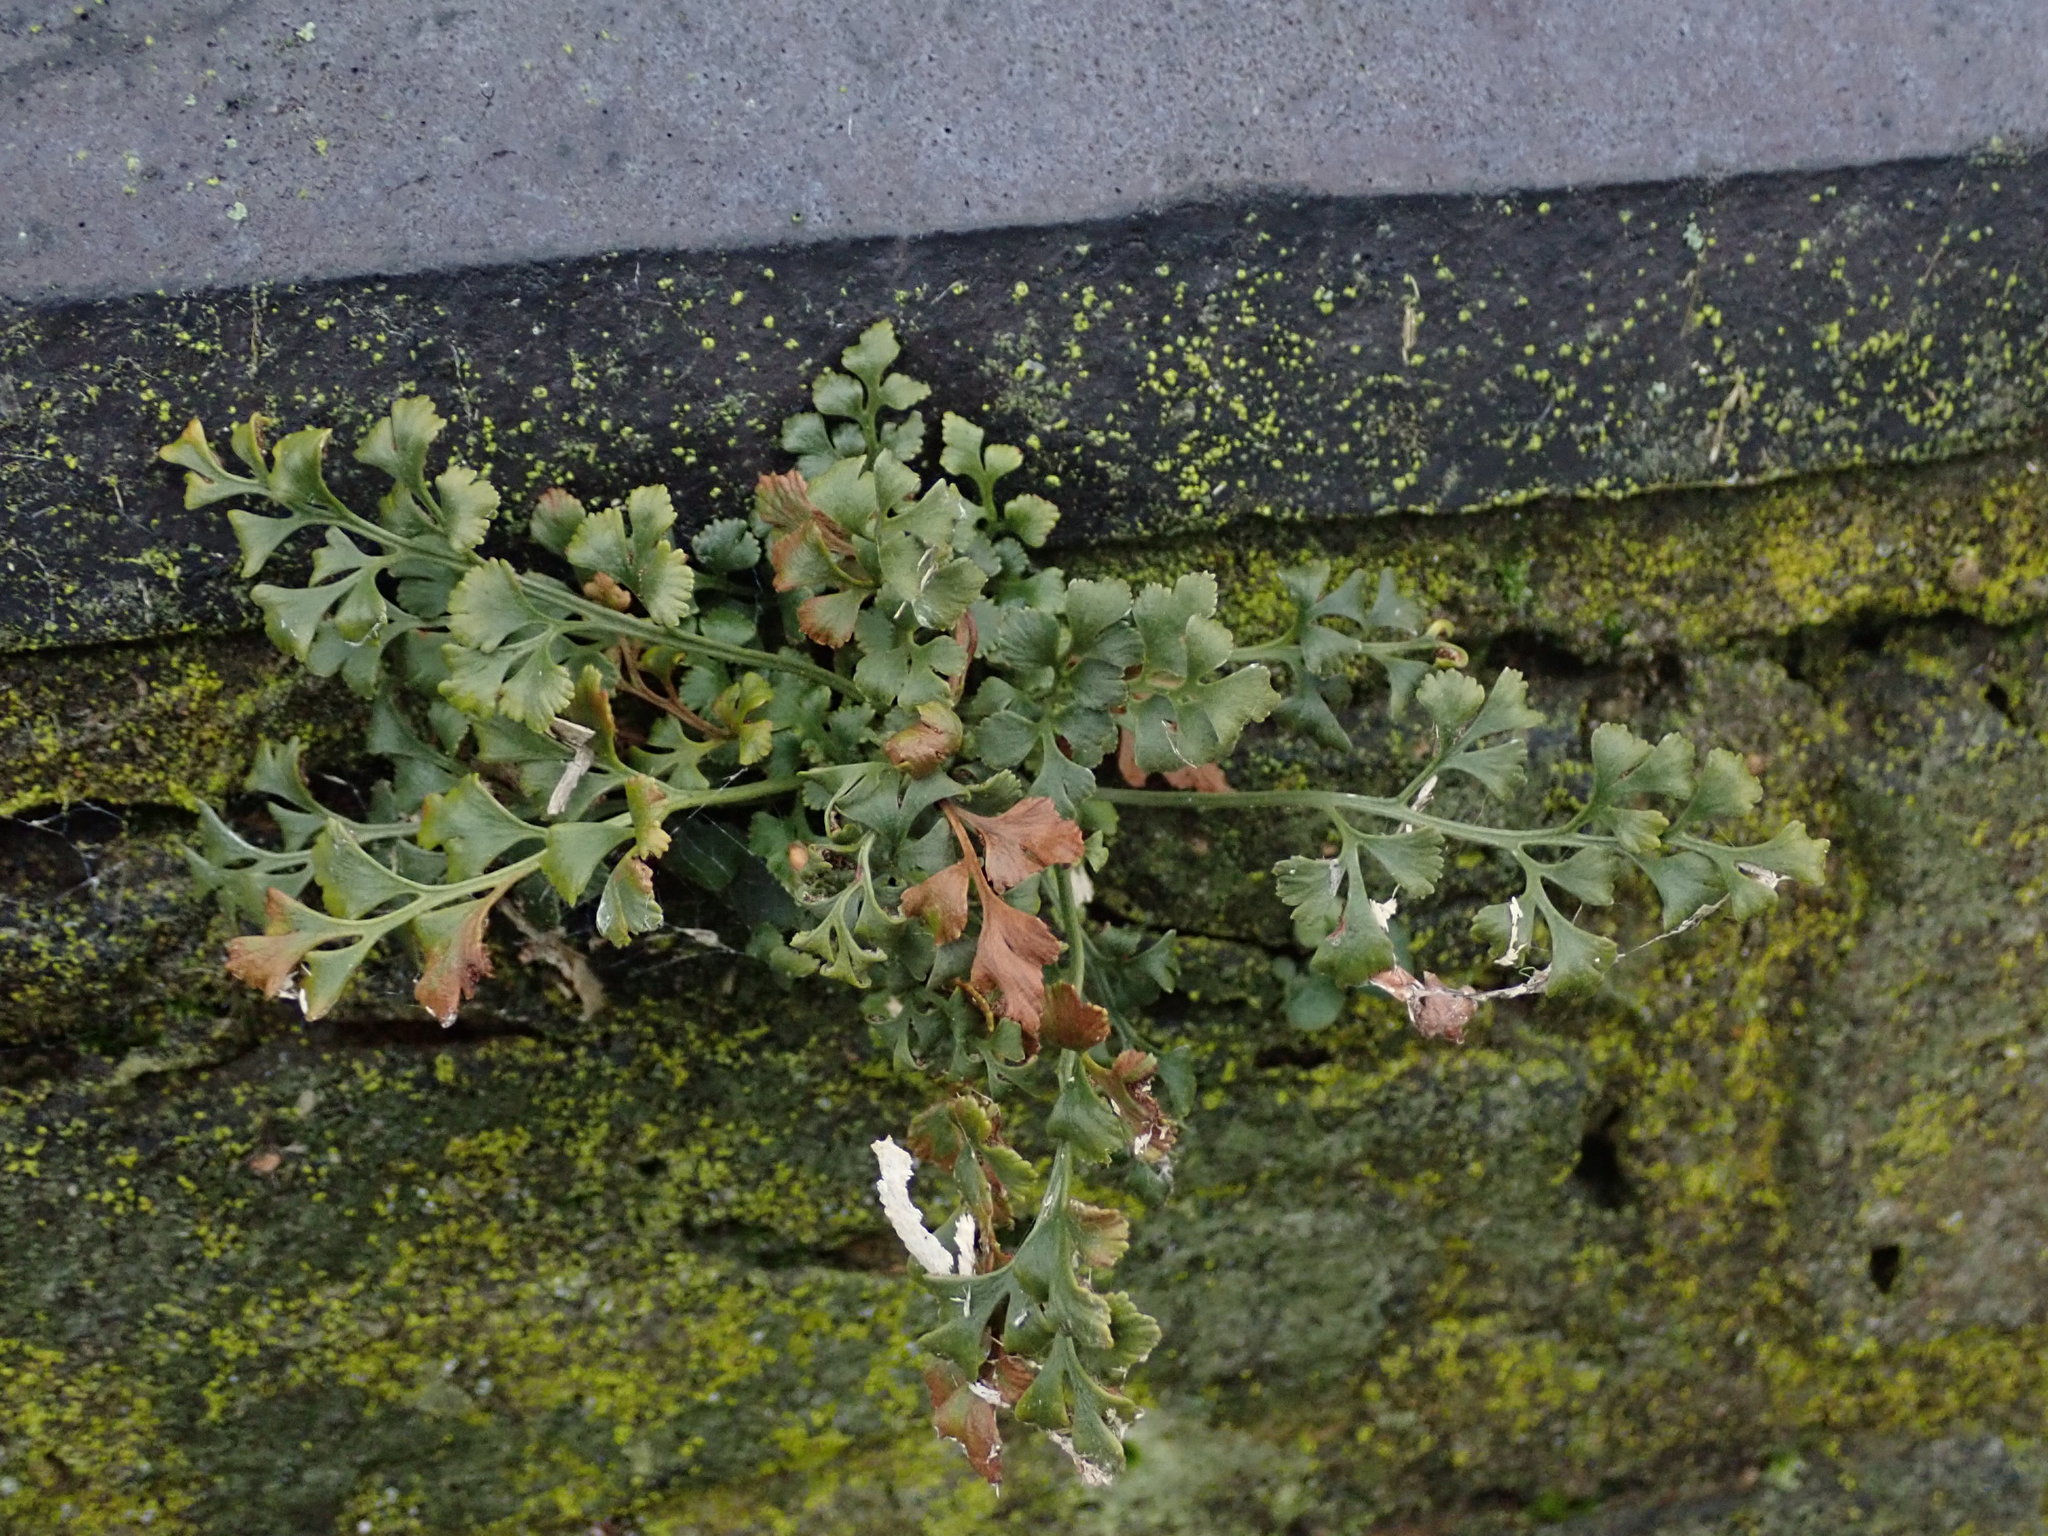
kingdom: Plantae
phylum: Tracheophyta
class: Polypodiopsida
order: Polypodiales
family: Aspleniaceae
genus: Asplenium
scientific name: Asplenium ruta-muraria
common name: Wall-rue
